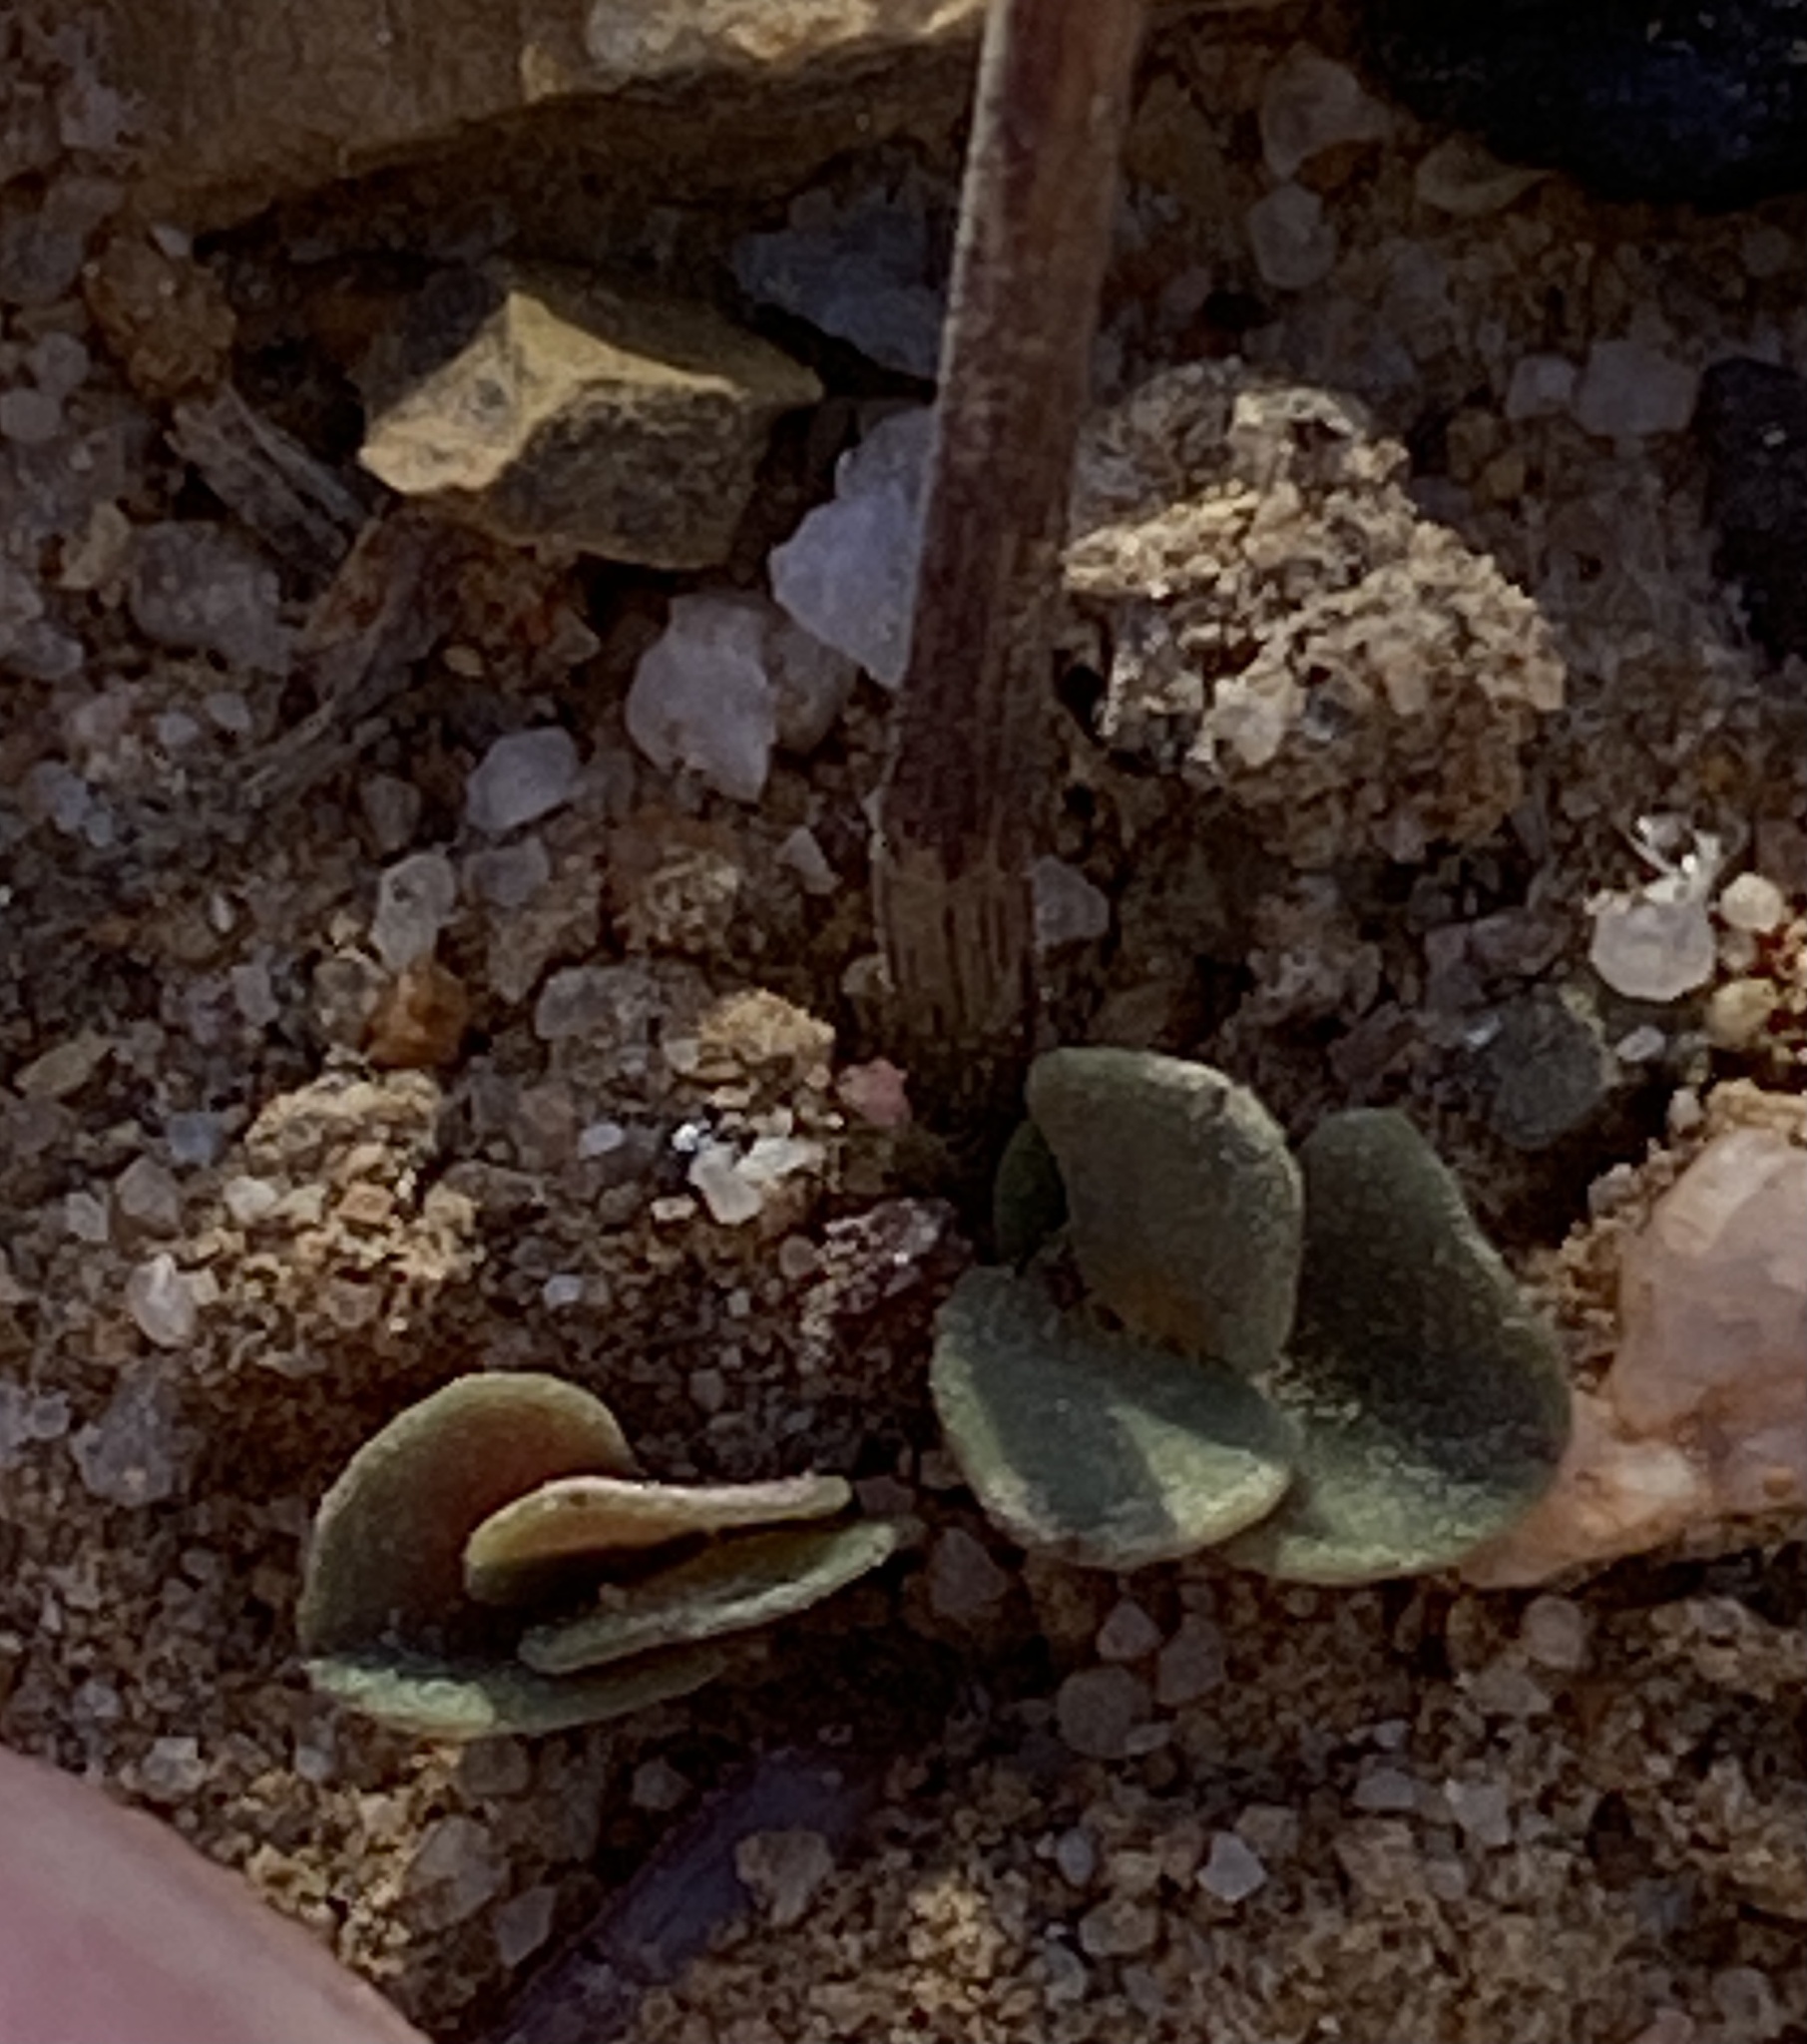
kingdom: Plantae
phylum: Tracheophyta
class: Magnoliopsida
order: Oxalidales
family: Oxalidaceae
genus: Oxalis
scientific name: Oxalis pocockiae
